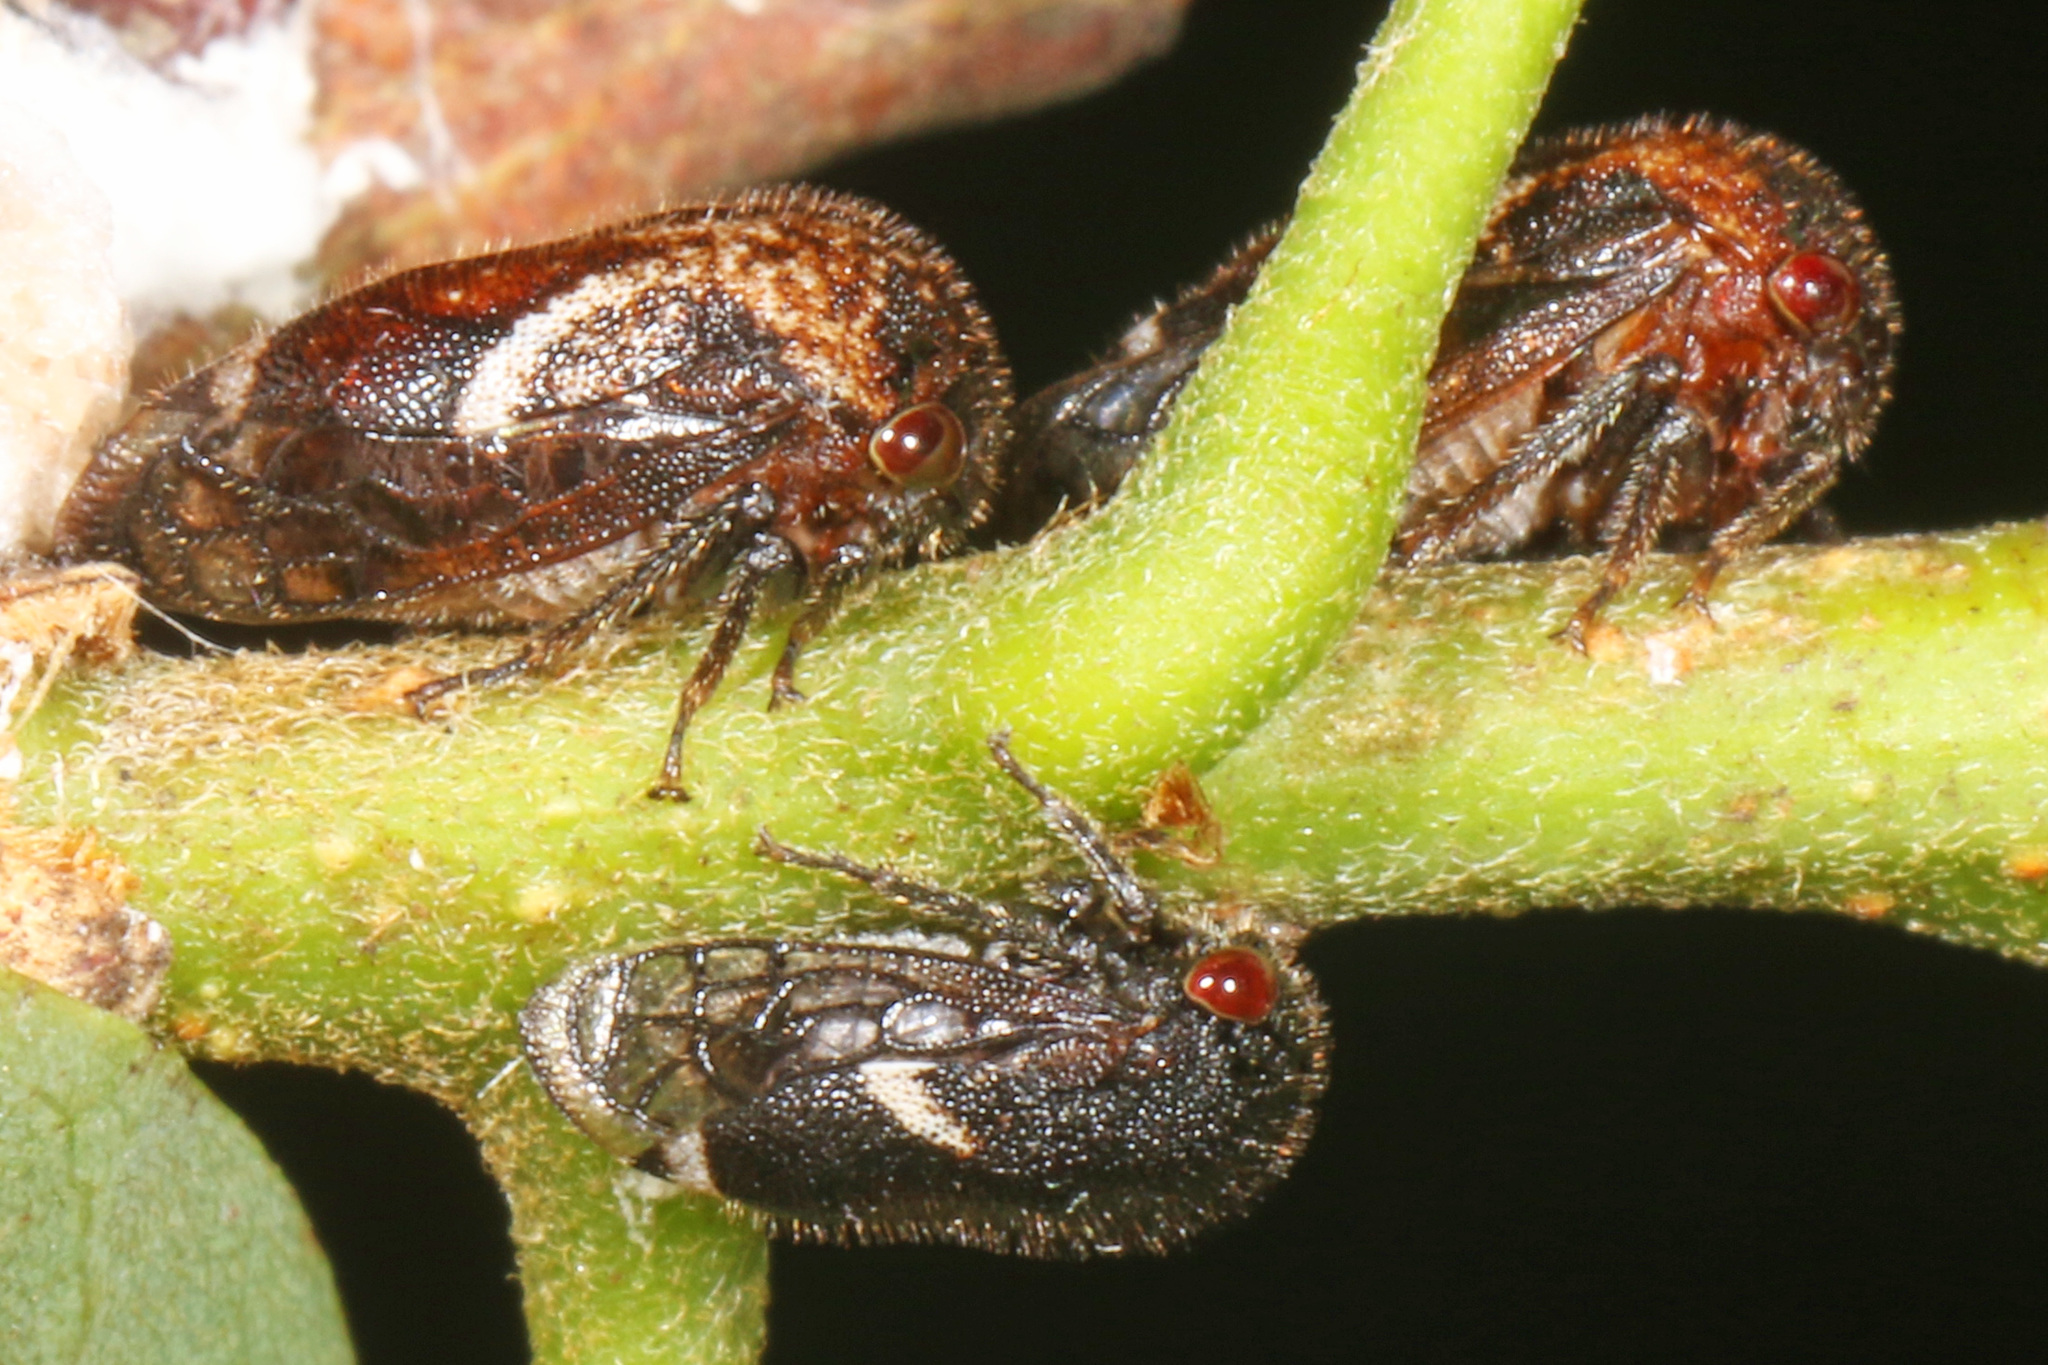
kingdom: Animalia
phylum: Arthropoda
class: Insecta
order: Hemiptera
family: Membracidae
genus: Vanduzea
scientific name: Vanduzea arquata
